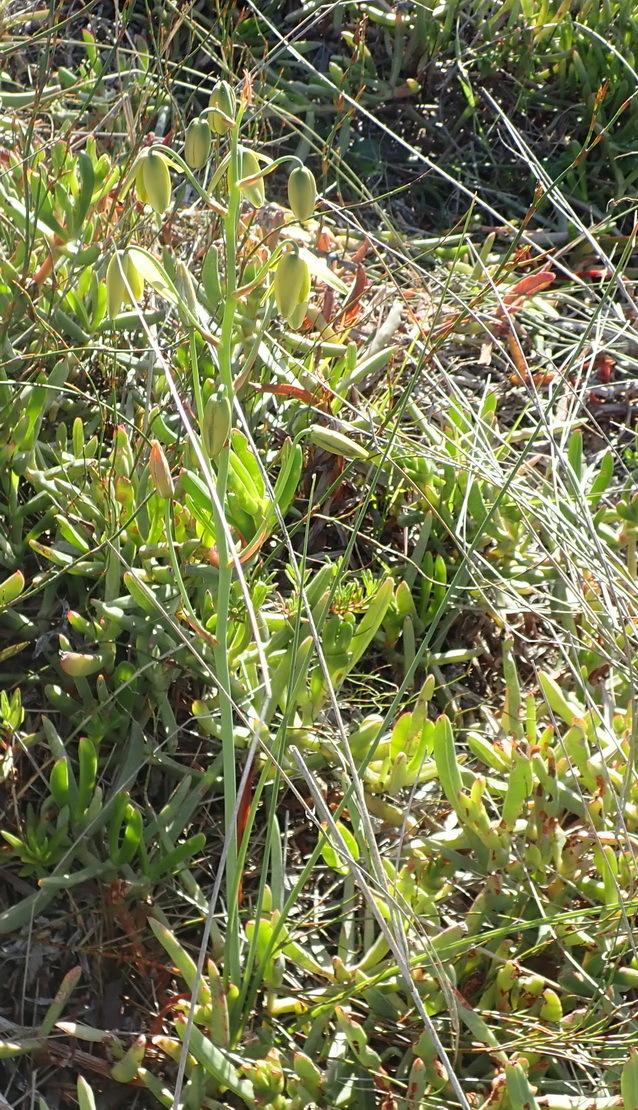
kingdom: Plantae
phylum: Tracheophyta
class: Liliopsida
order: Asparagales
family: Asparagaceae
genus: Albuca
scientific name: Albuca cooperi
